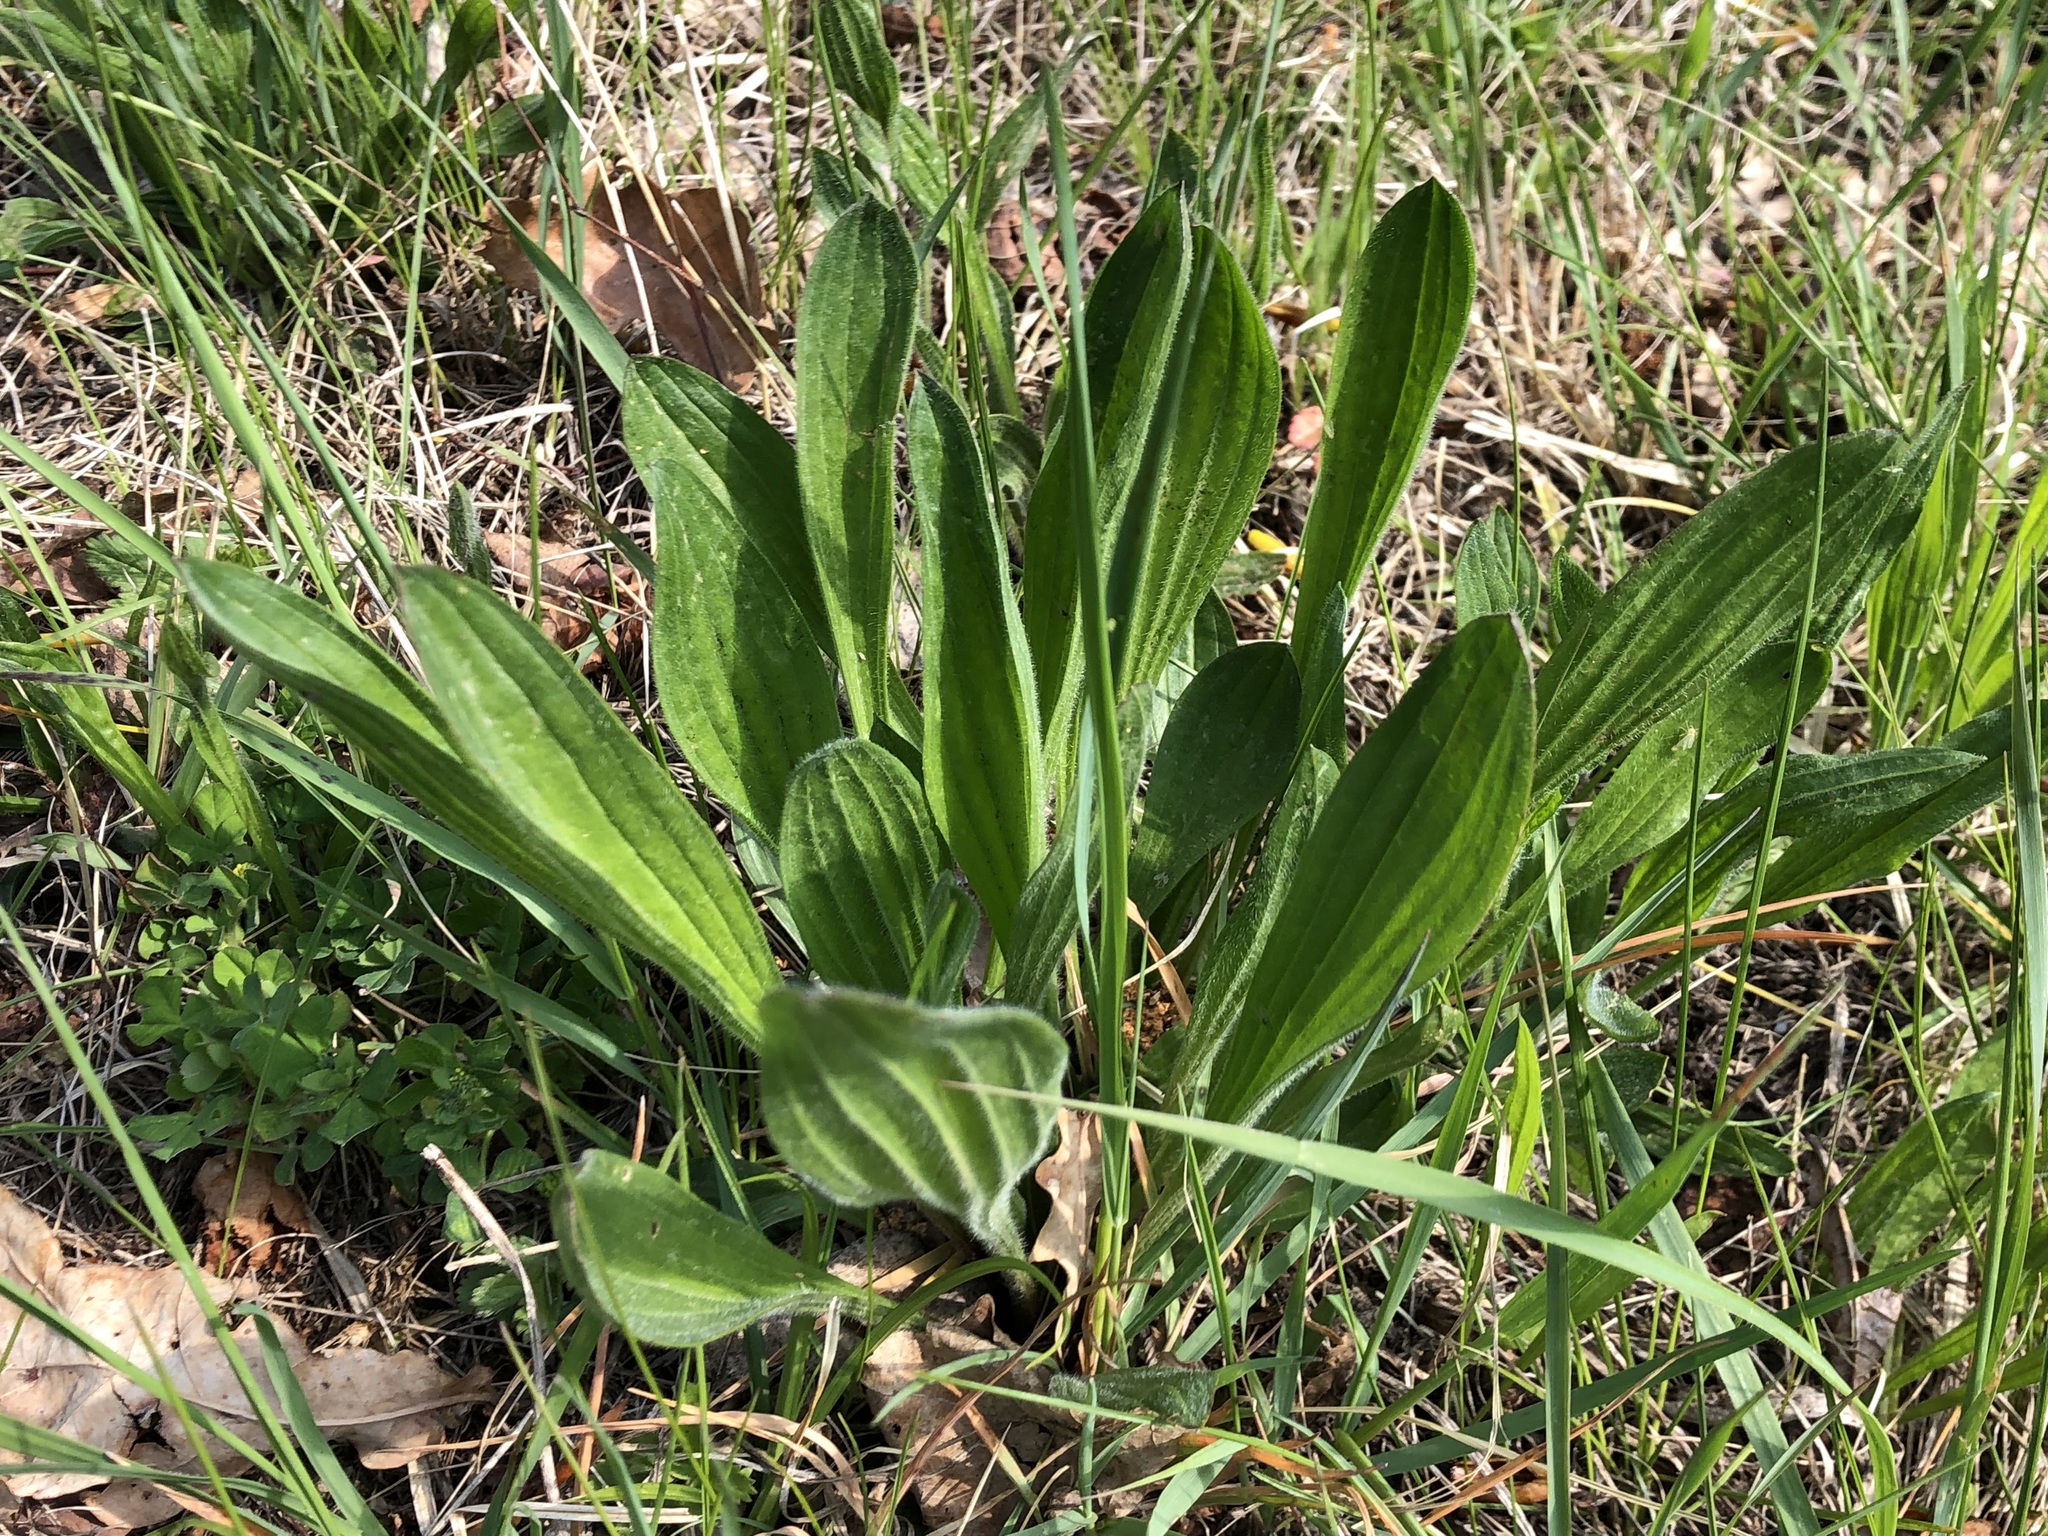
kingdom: Plantae
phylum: Tracheophyta
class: Magnoliopsida
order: Lamiales
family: Plantaginaceae
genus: Plantago
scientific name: Plantago lanceolata
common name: Ribwort plantain
